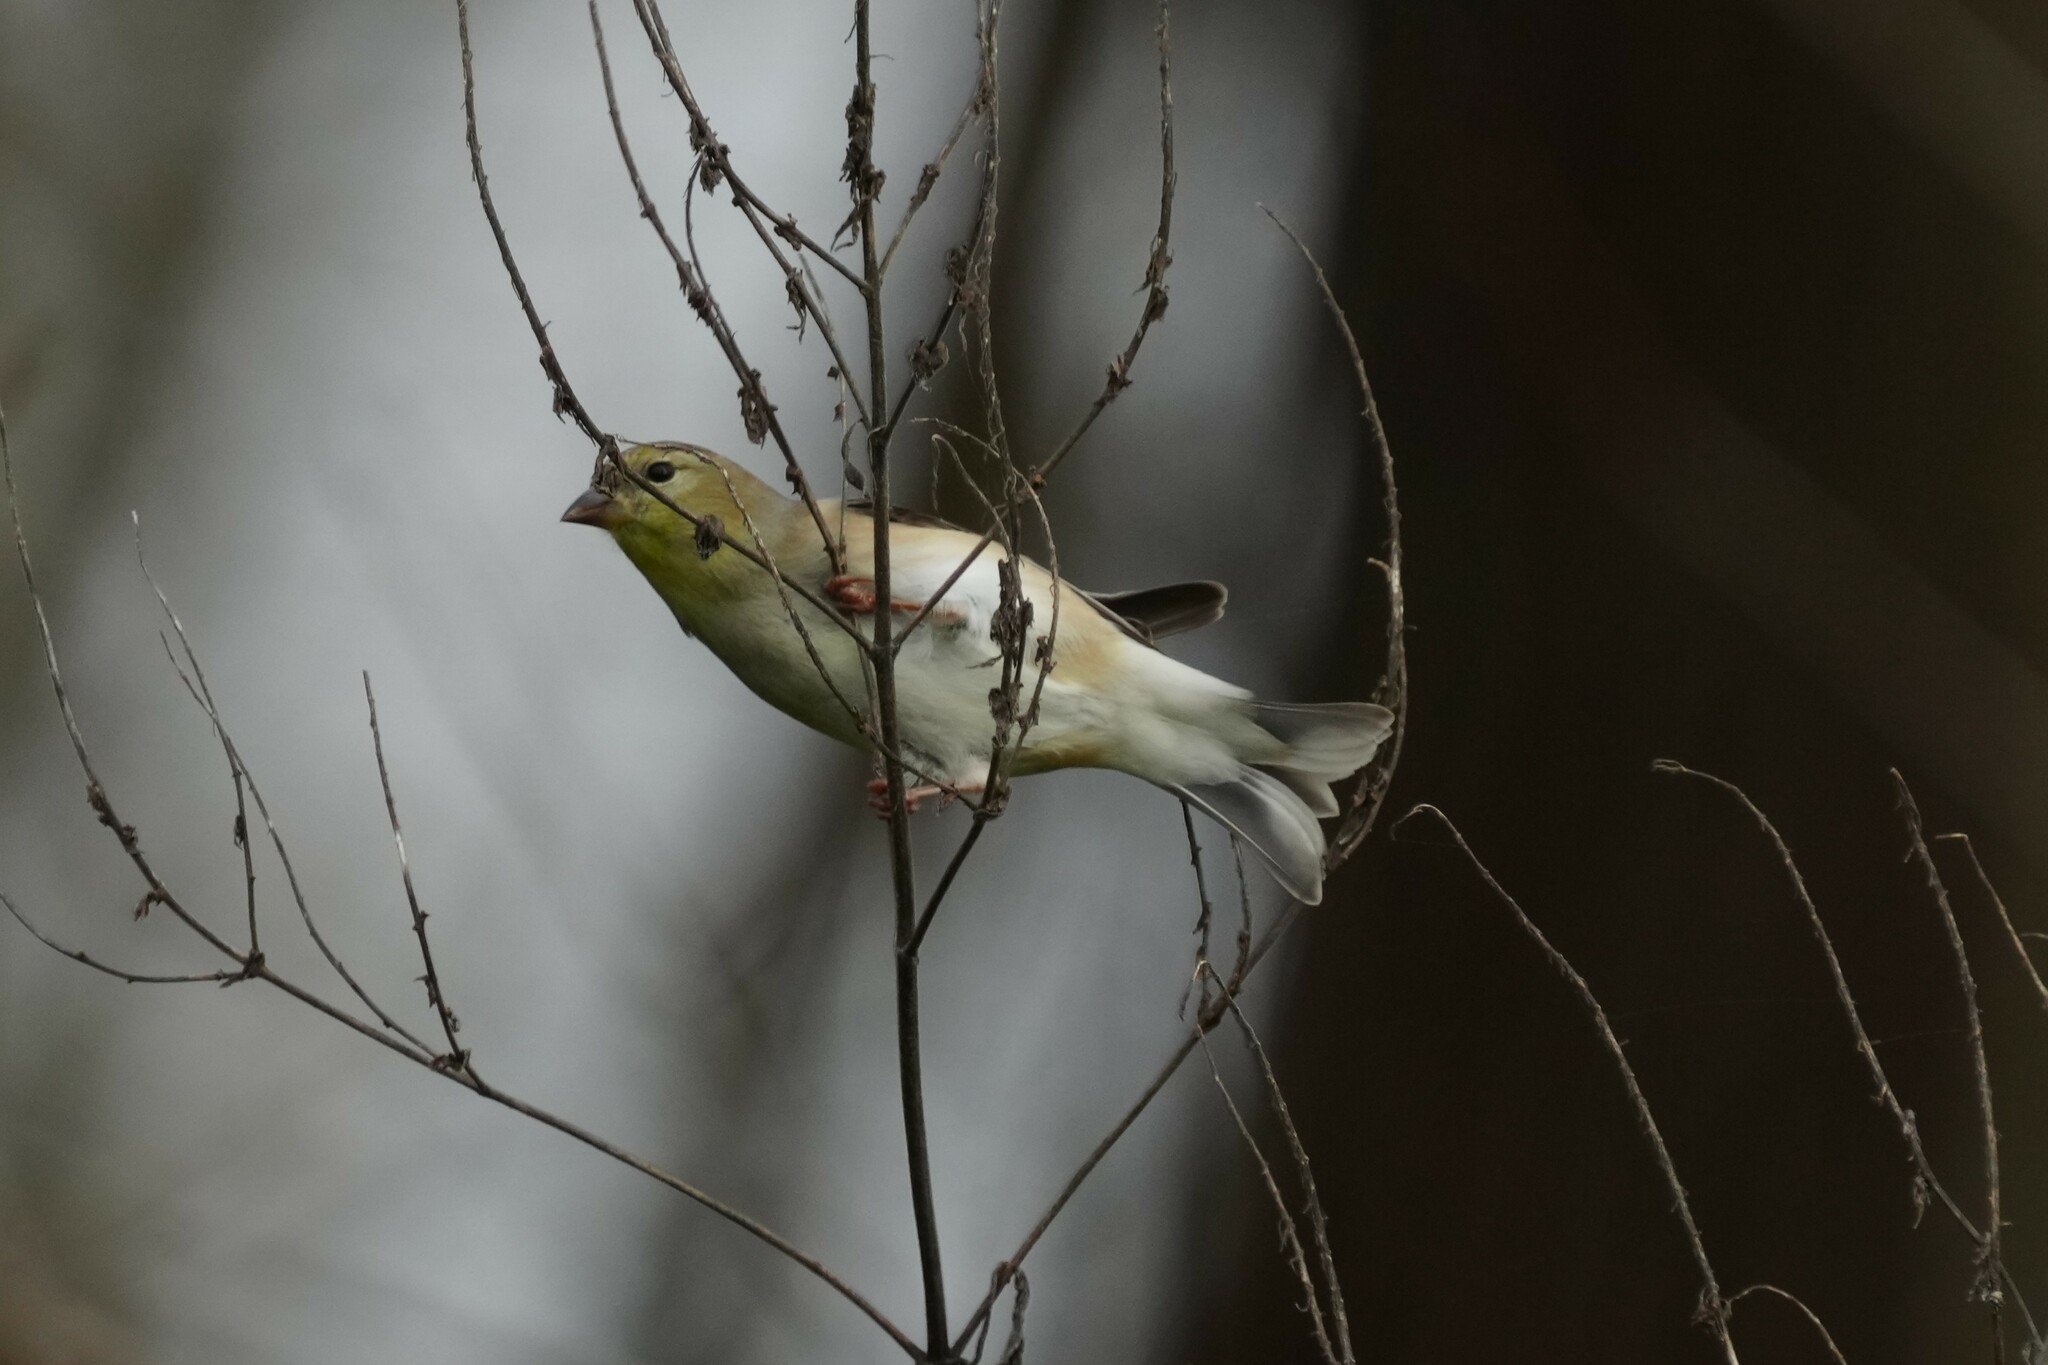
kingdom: Animalia
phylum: Chordata
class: Aves
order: Passeriformes
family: Fringillidae
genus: Spinus
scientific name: Spinus tristis
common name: American goldfinch
